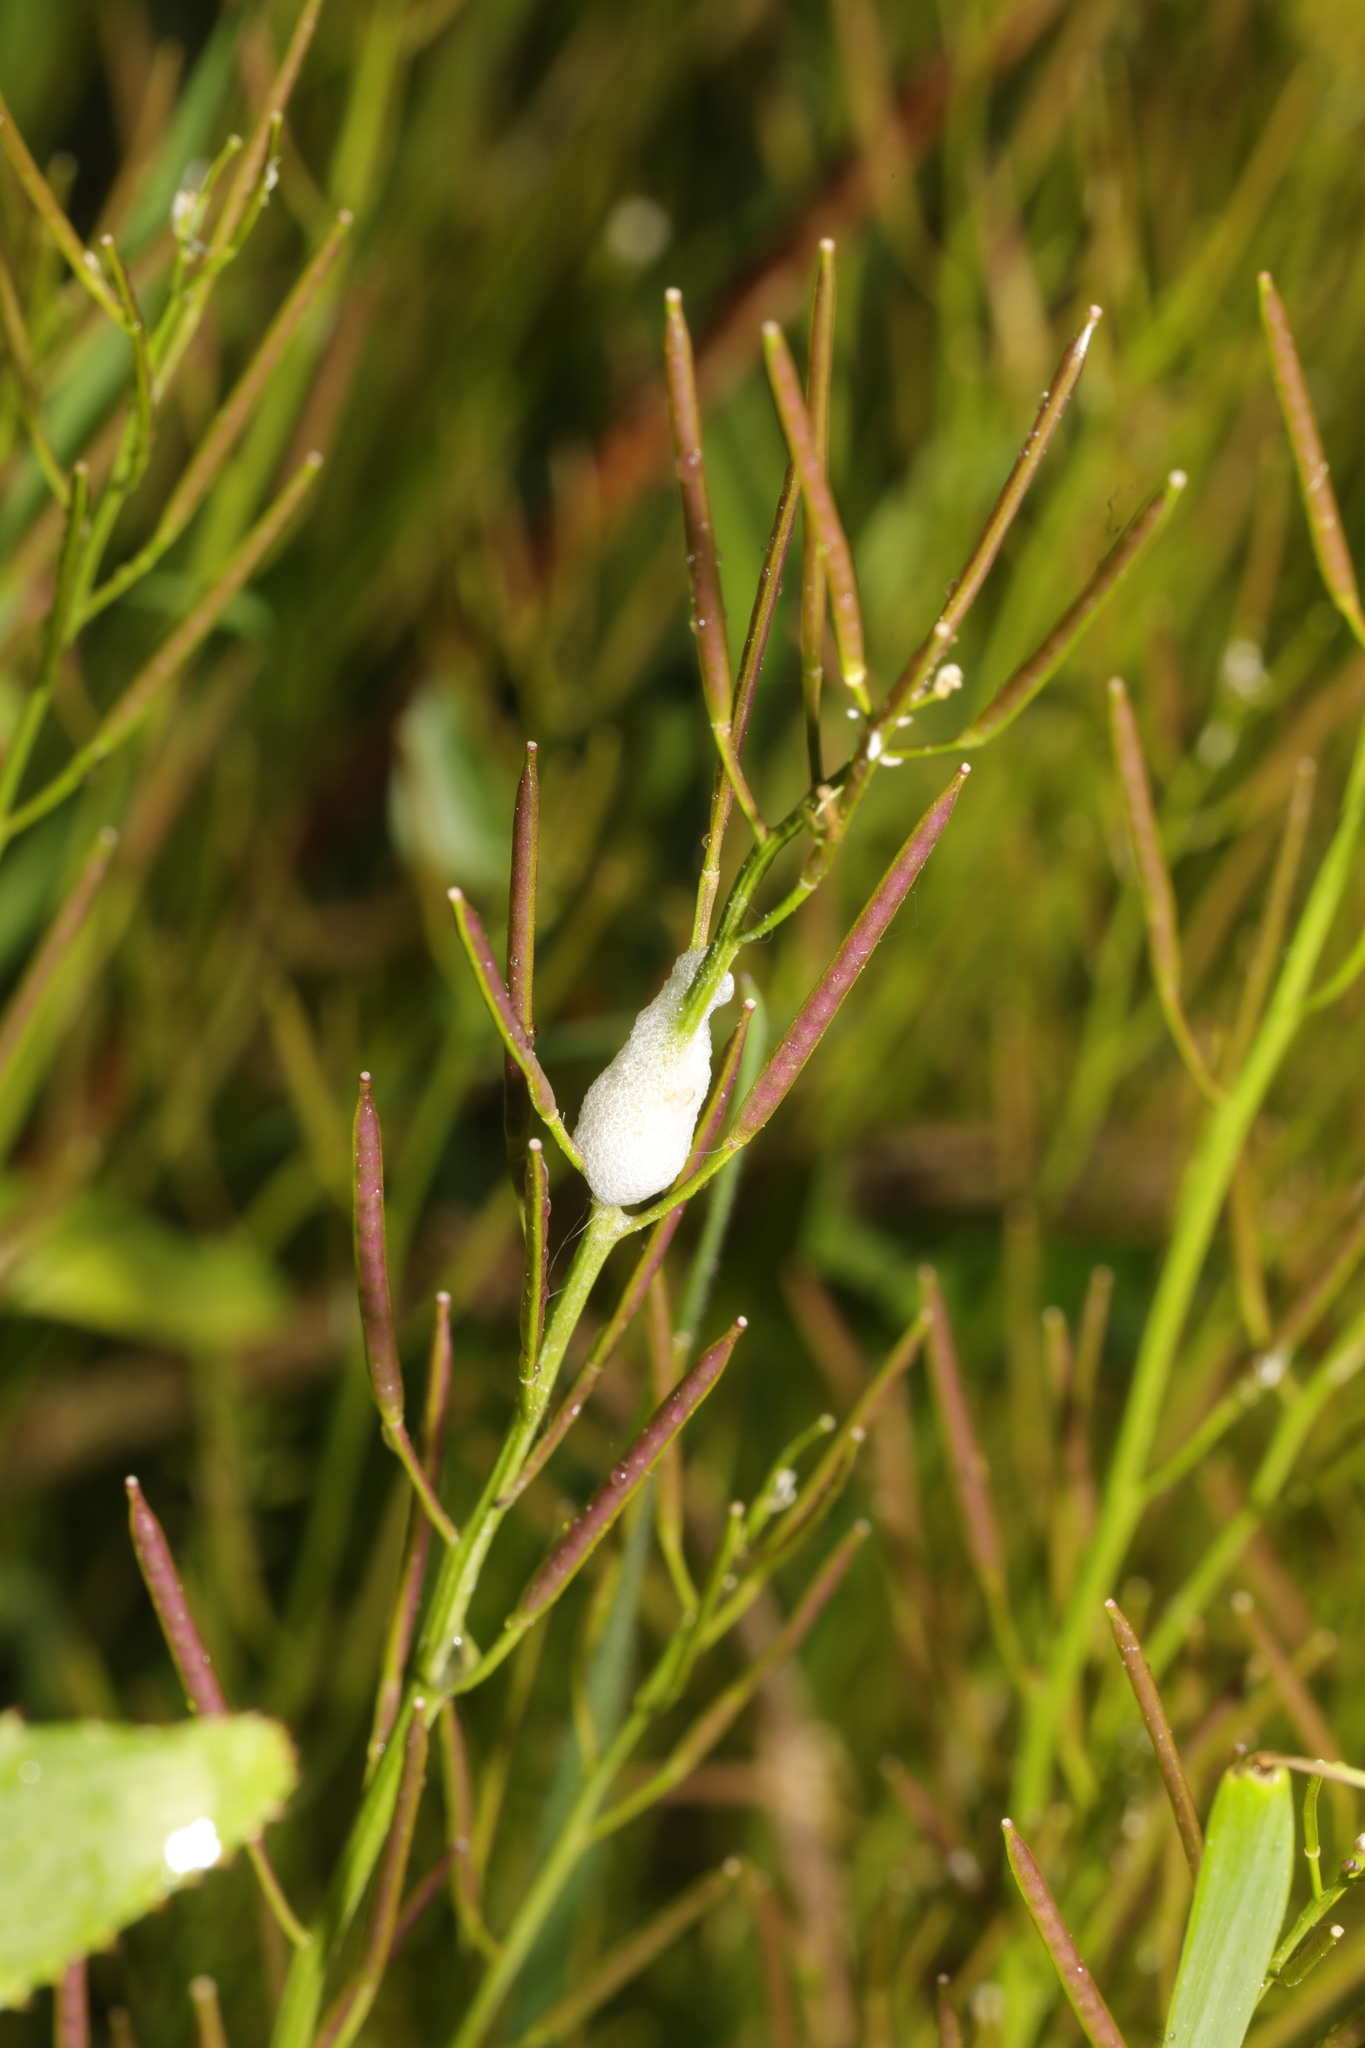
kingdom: Animalia
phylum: Arthropoda
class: Insecta
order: Hemiptera
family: Aphrophoridae
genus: Philaenus
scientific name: Philaenus spumarius
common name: Meadow spittlebug
